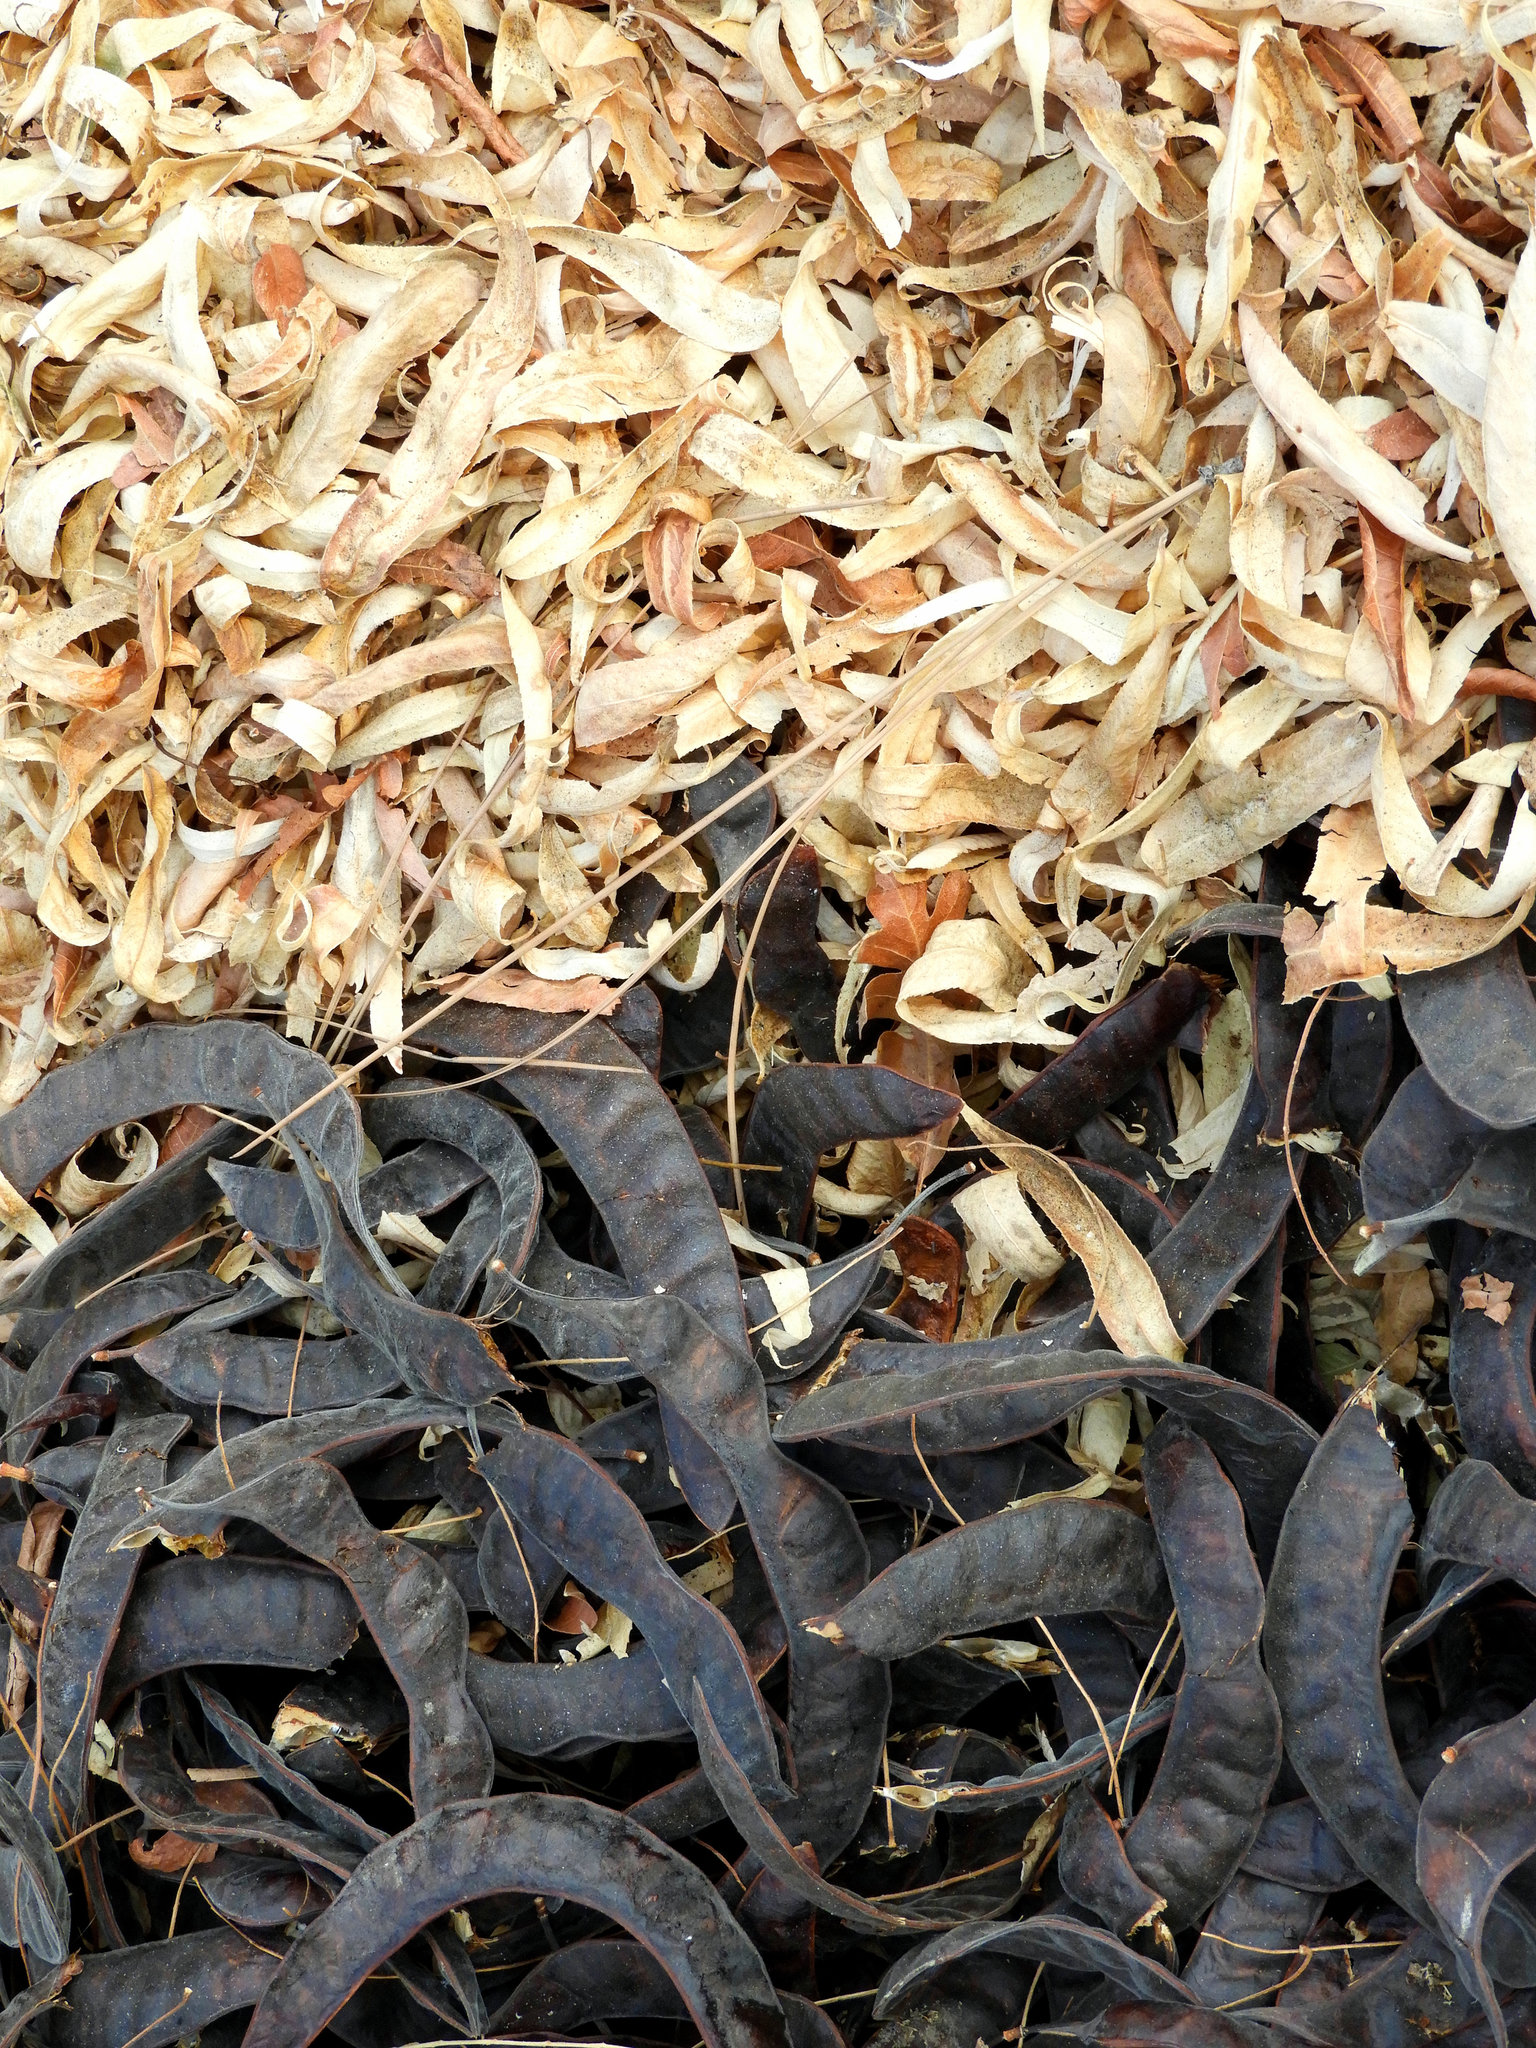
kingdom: Plantae
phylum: Tracheophyta
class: Magnoliopsida
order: Fabales
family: Fabaceae
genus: Robinia
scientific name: Robinia pseudoacacia
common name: Black locust
